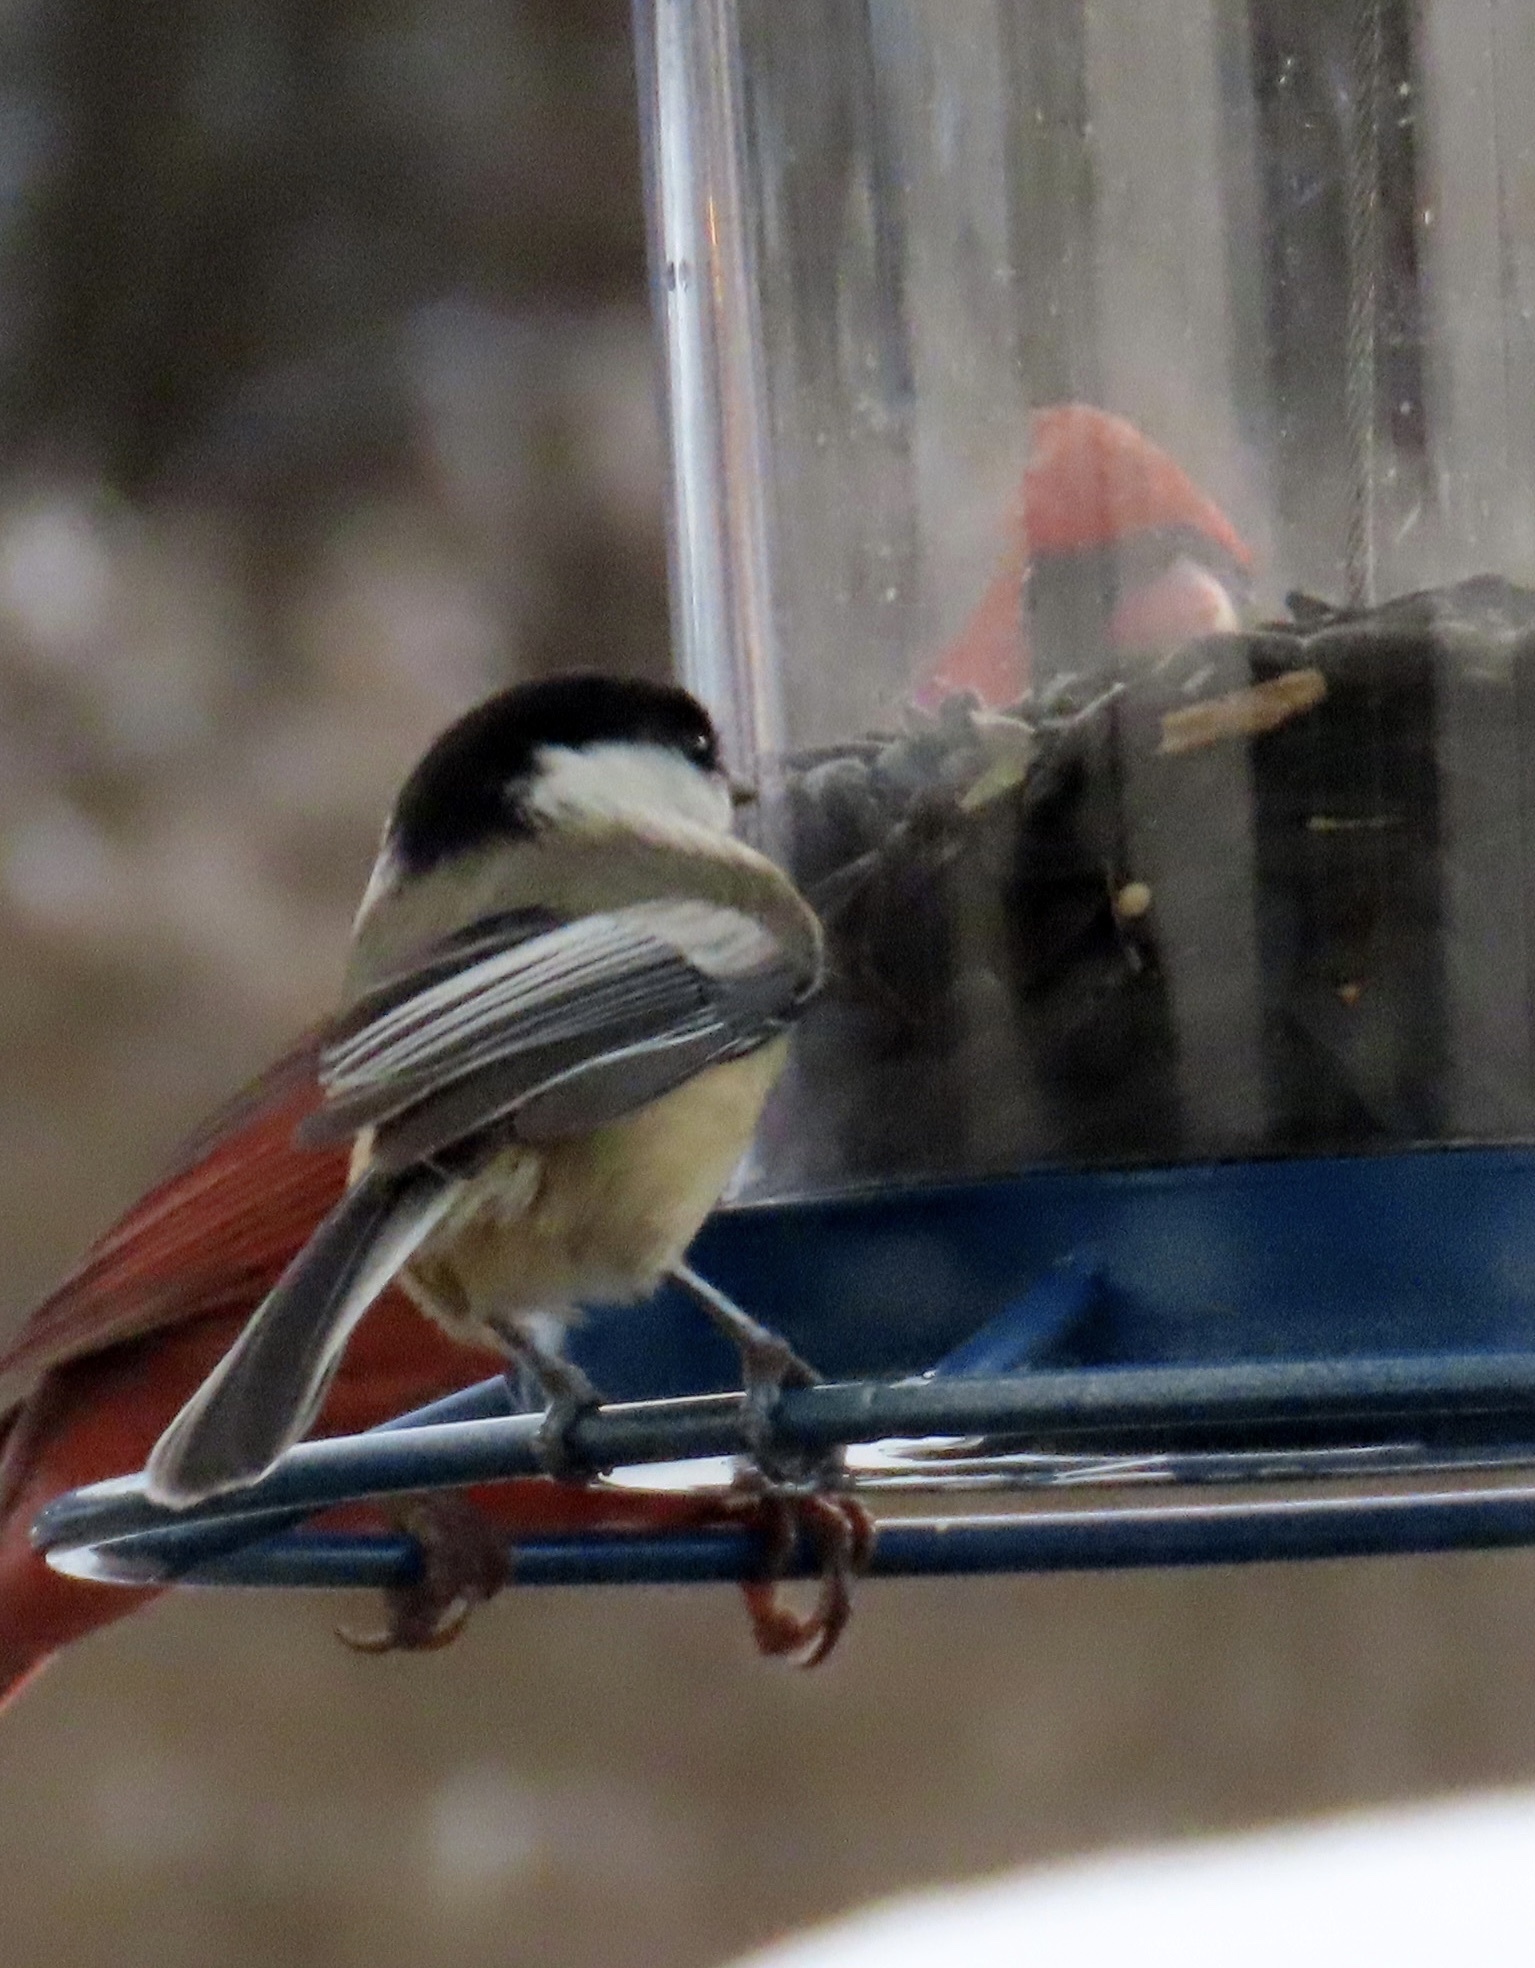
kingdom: Animalia
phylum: Chordata
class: Aves
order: Passeriformes
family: Paridae
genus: Poecile
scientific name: Poecile atricapillus
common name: Black-capped chickadee
